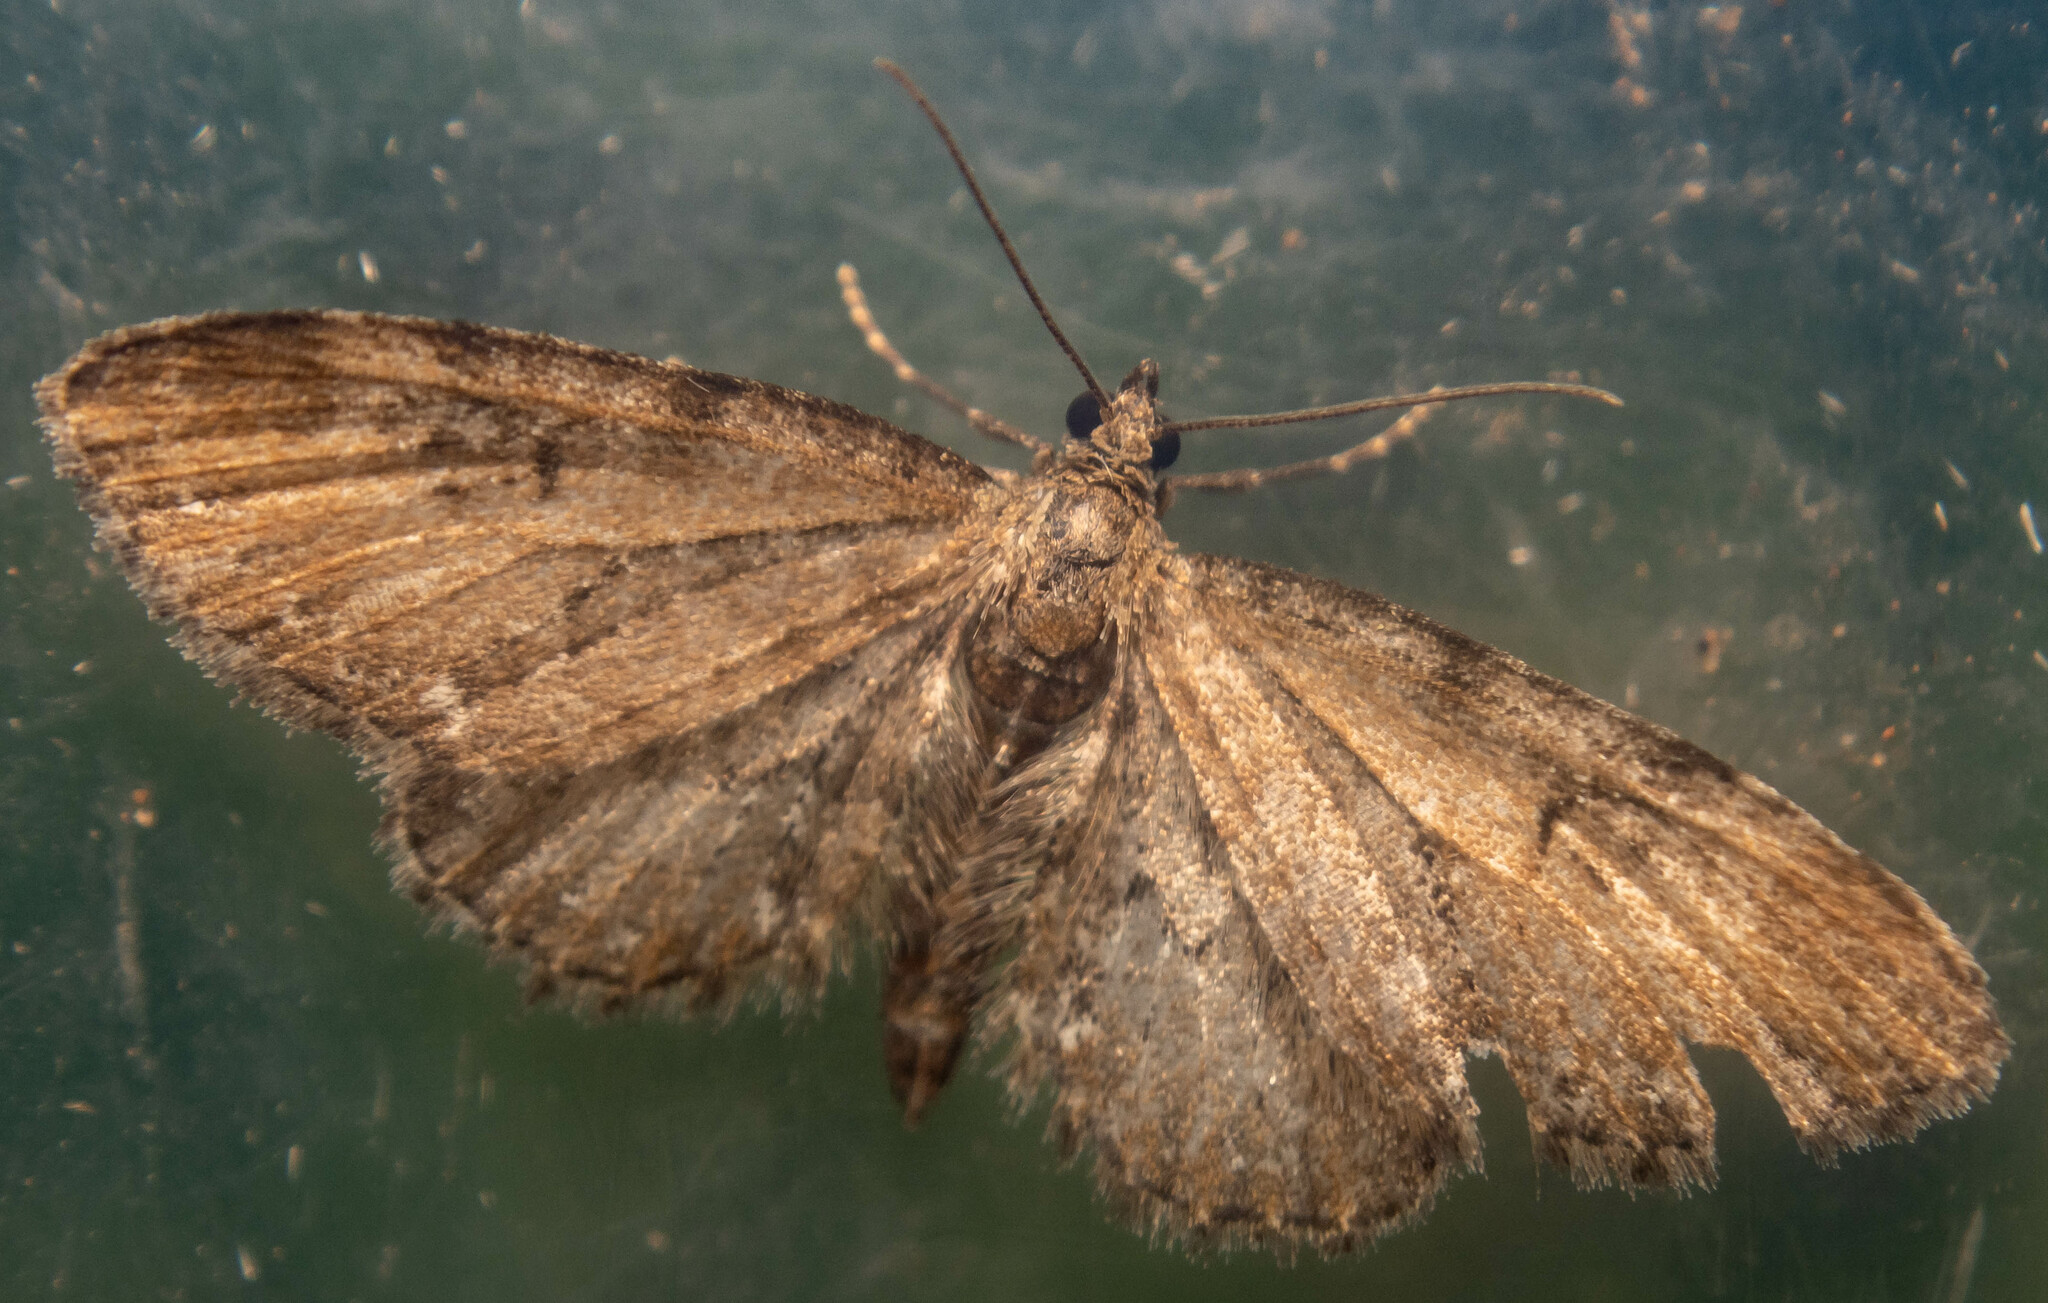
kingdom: Animalia
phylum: Arthropoda
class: Insecta
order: Lepidoptera
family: Geometridae
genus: Eupithecia
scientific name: Eupithecia vulgata
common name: Common pug
